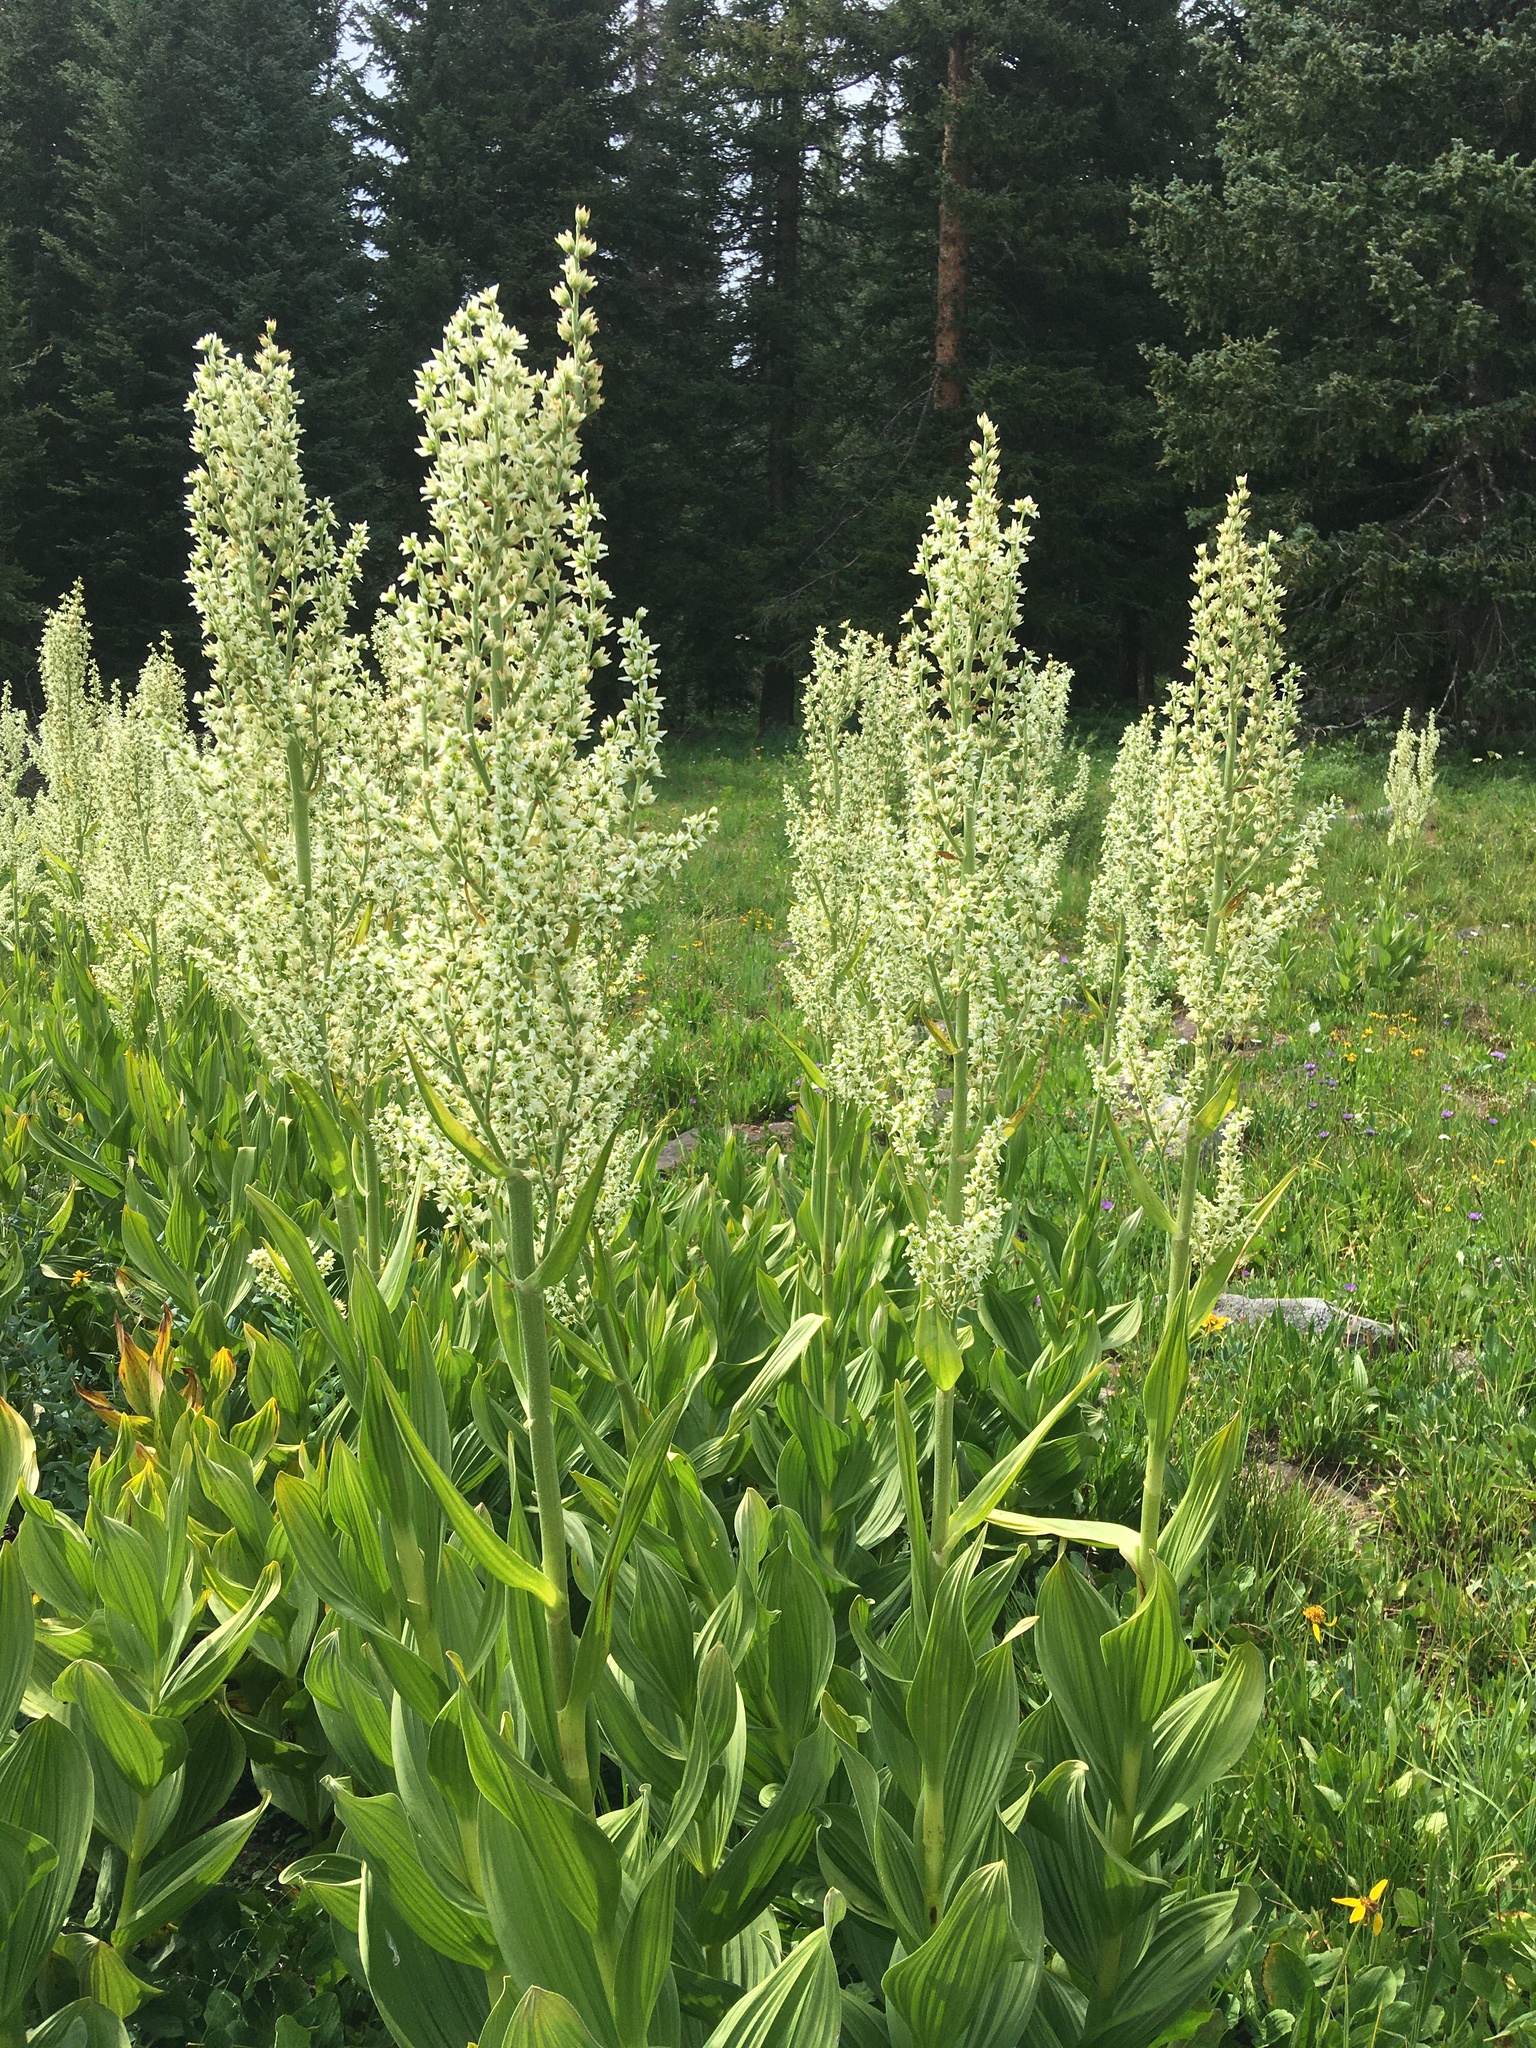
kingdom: Plantae
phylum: Tracheophyta
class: Liliopsida
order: Liliales
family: Melanthiaceae
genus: Veratrum
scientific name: Veratrum californicum
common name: California veratrum
